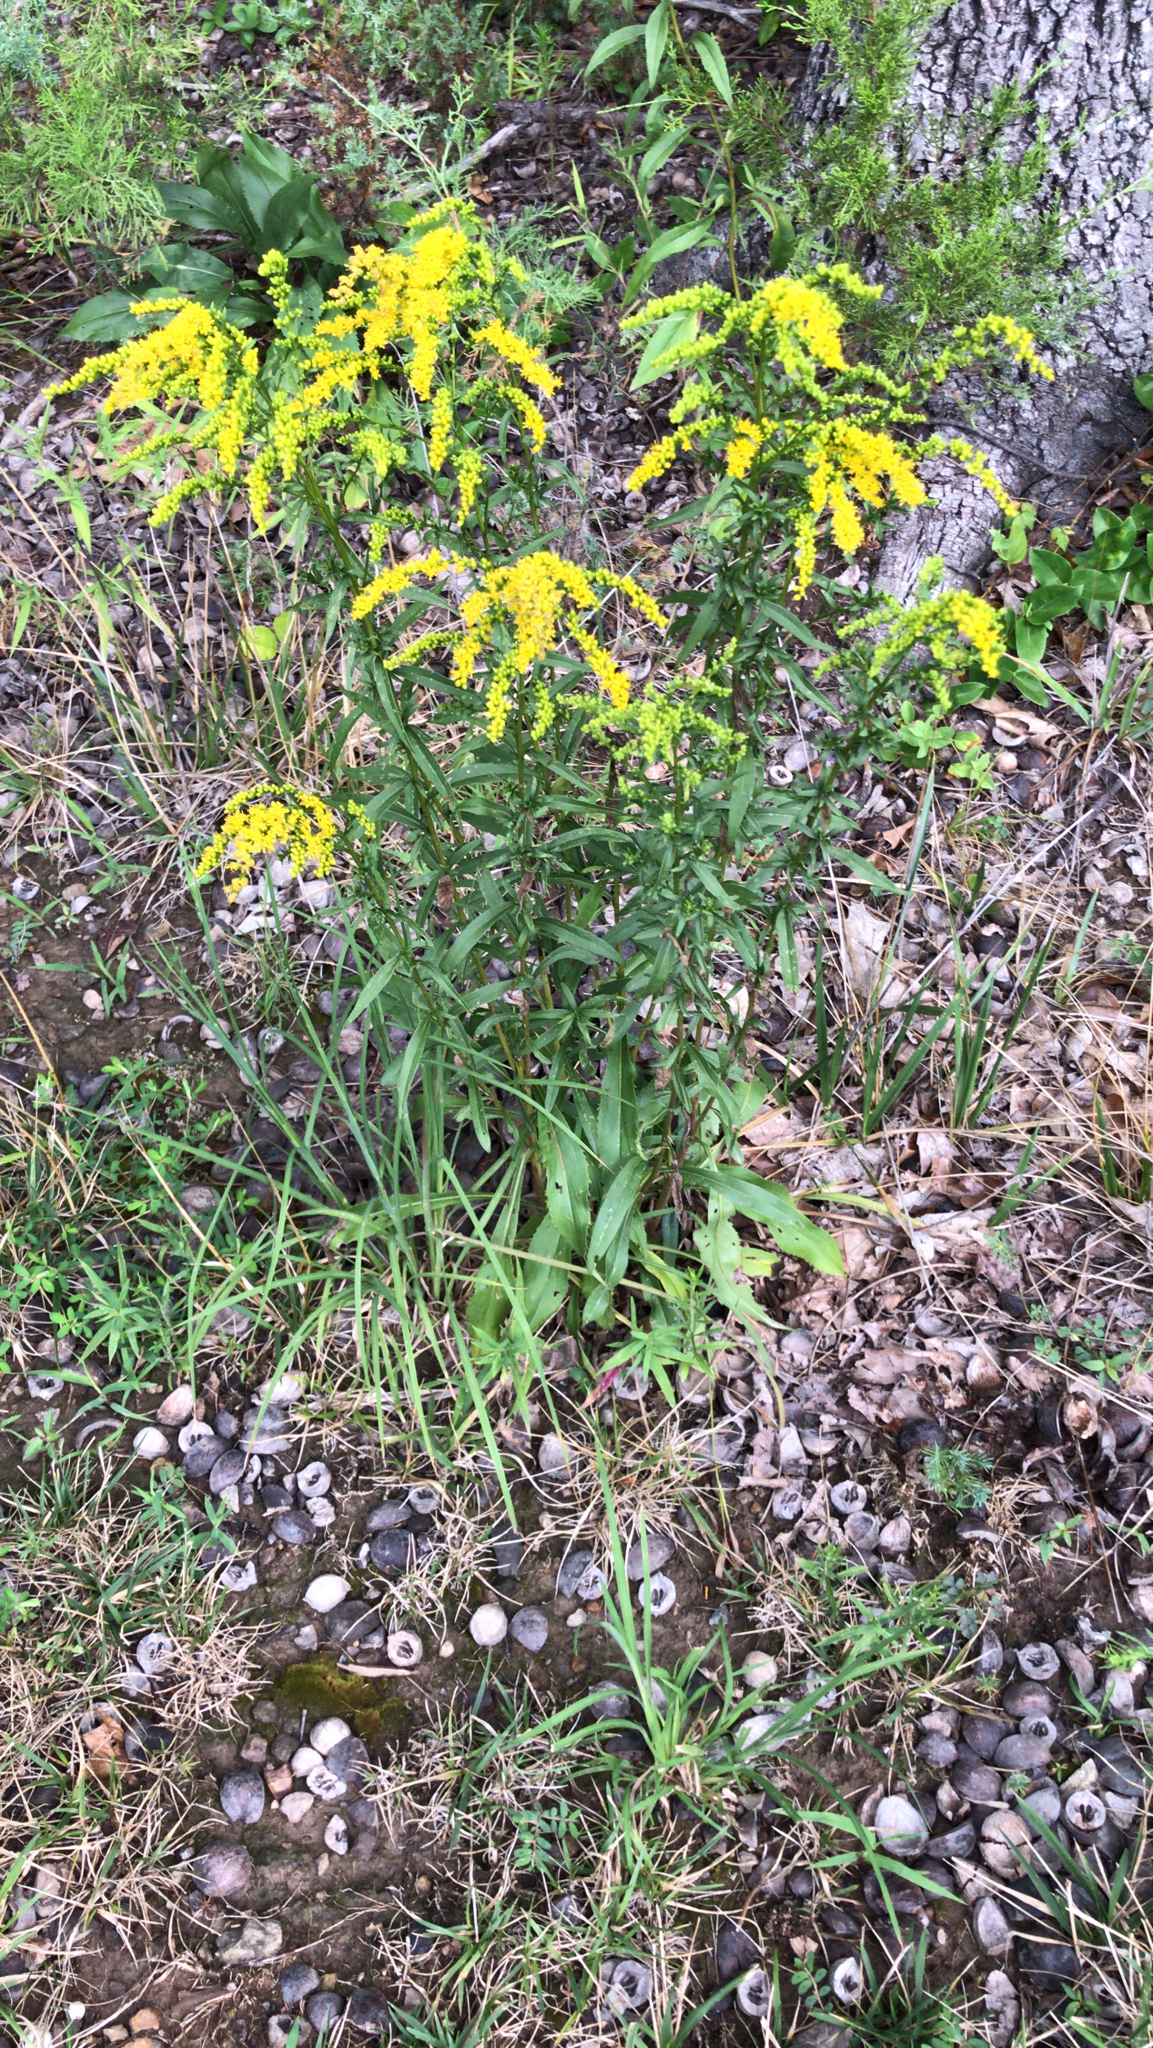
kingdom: Plantae
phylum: Tracheophyta
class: Magnoliopsida
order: Asterales
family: Asteraceae
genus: Solidago
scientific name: Solidago juncea
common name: Early goldenrod
